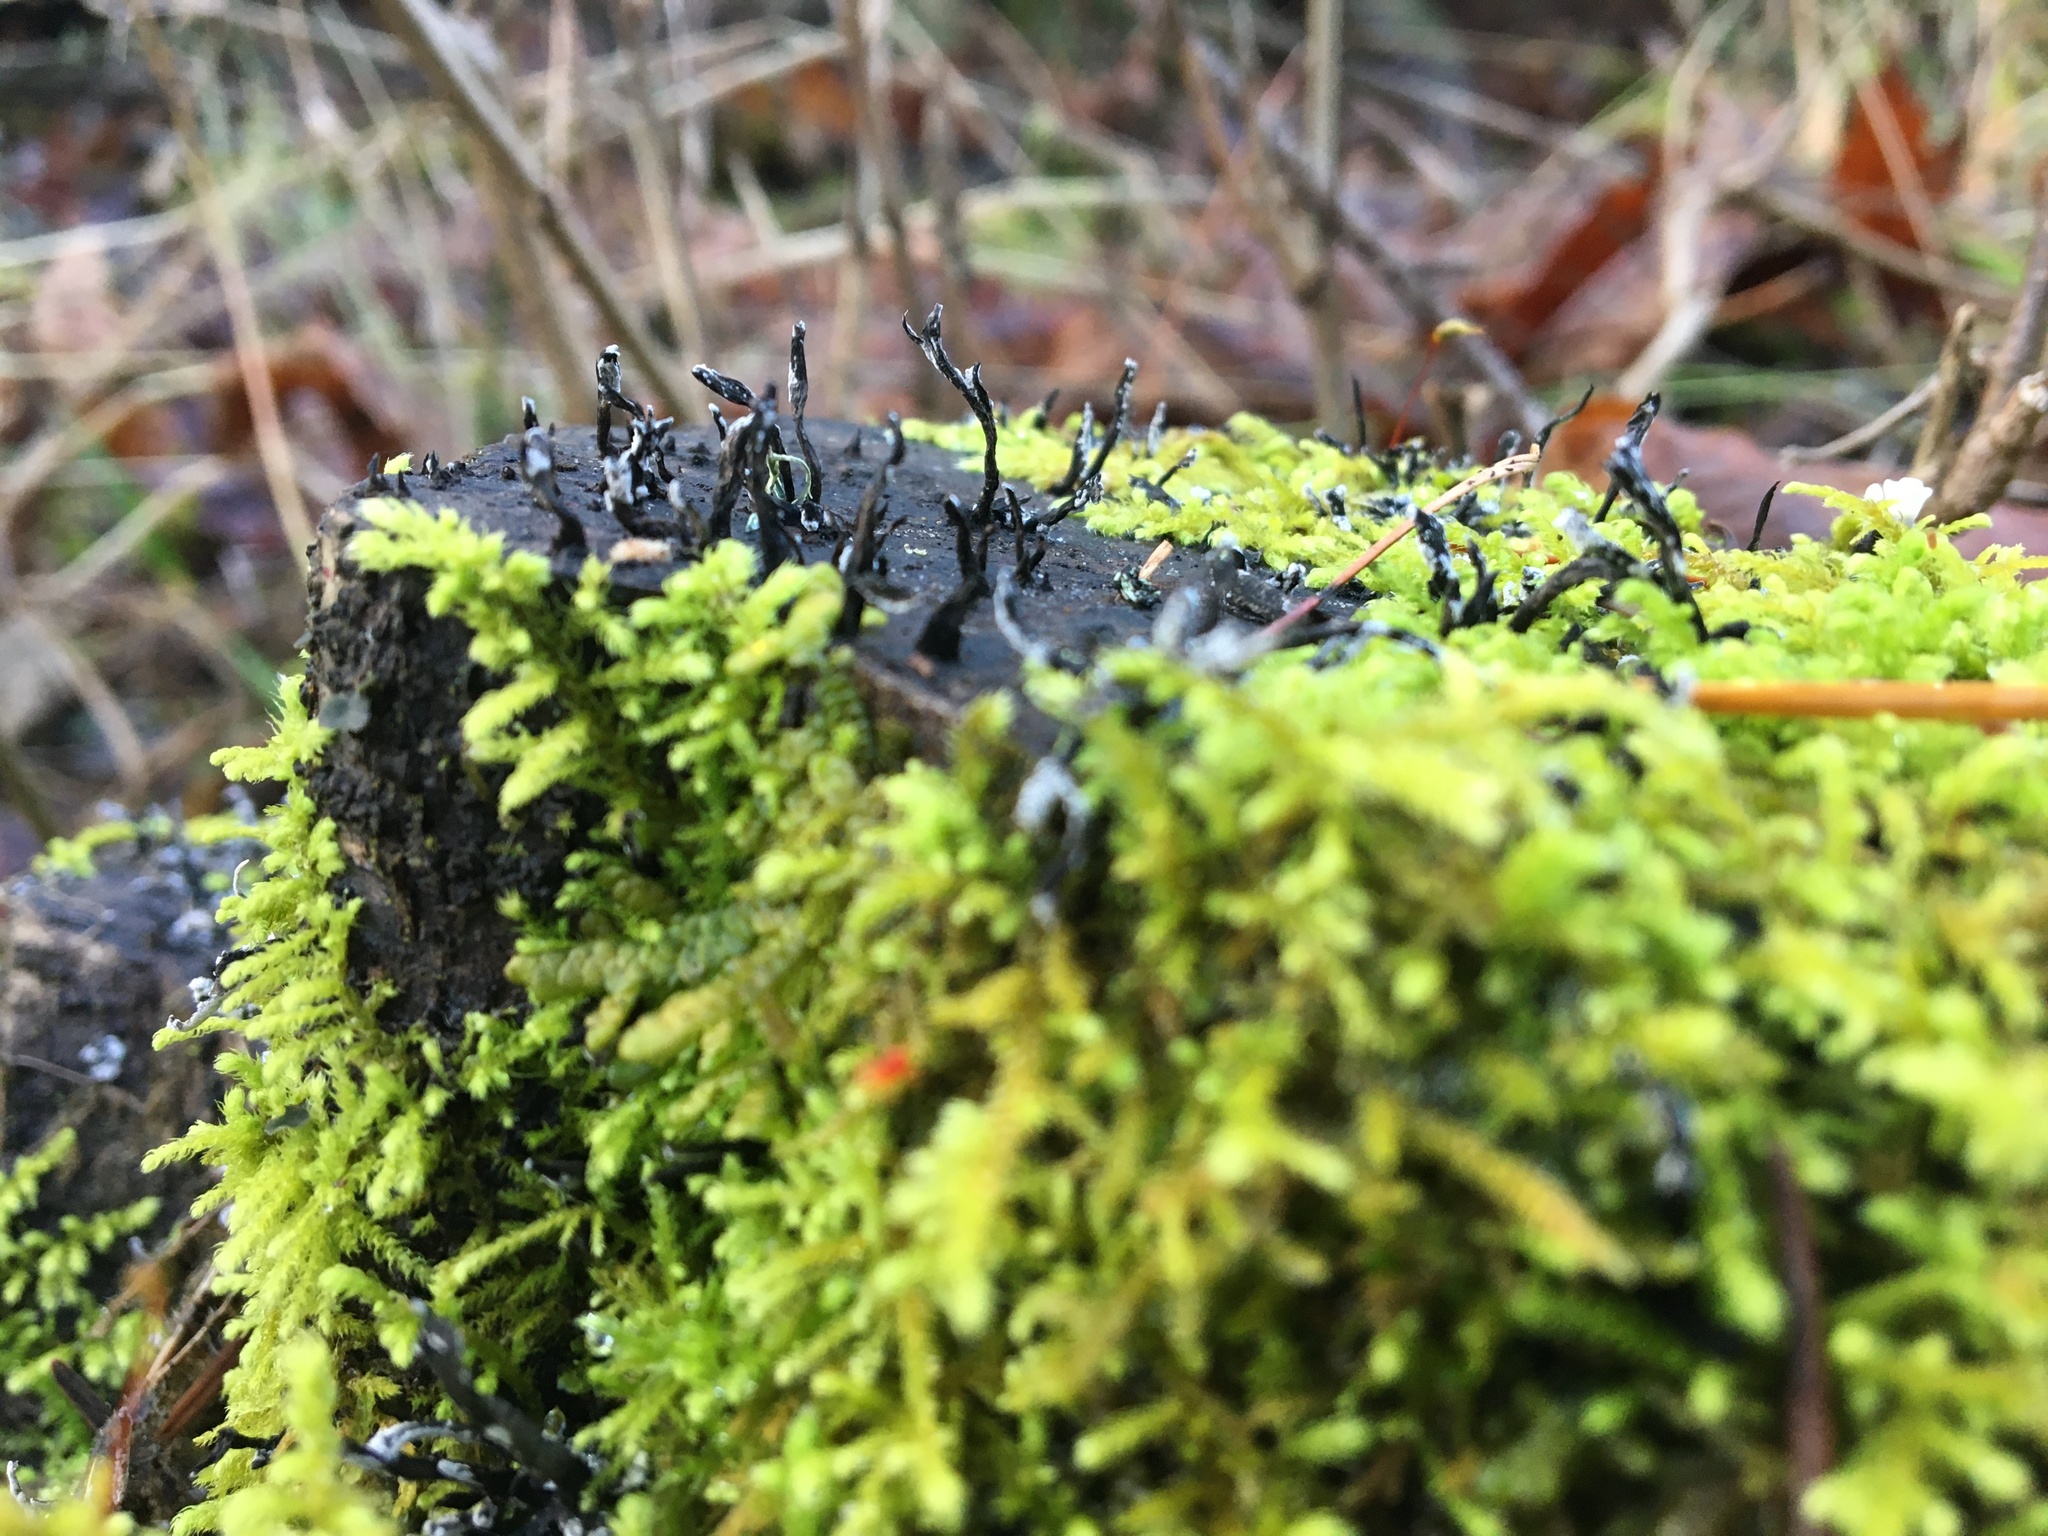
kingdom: Fungi
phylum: Ascomycota
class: Sordariomycetes
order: Xylariales
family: Xylariaceae
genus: Xylaria
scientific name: Xylaria hypoxylon
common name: Candle-snuff fungus
